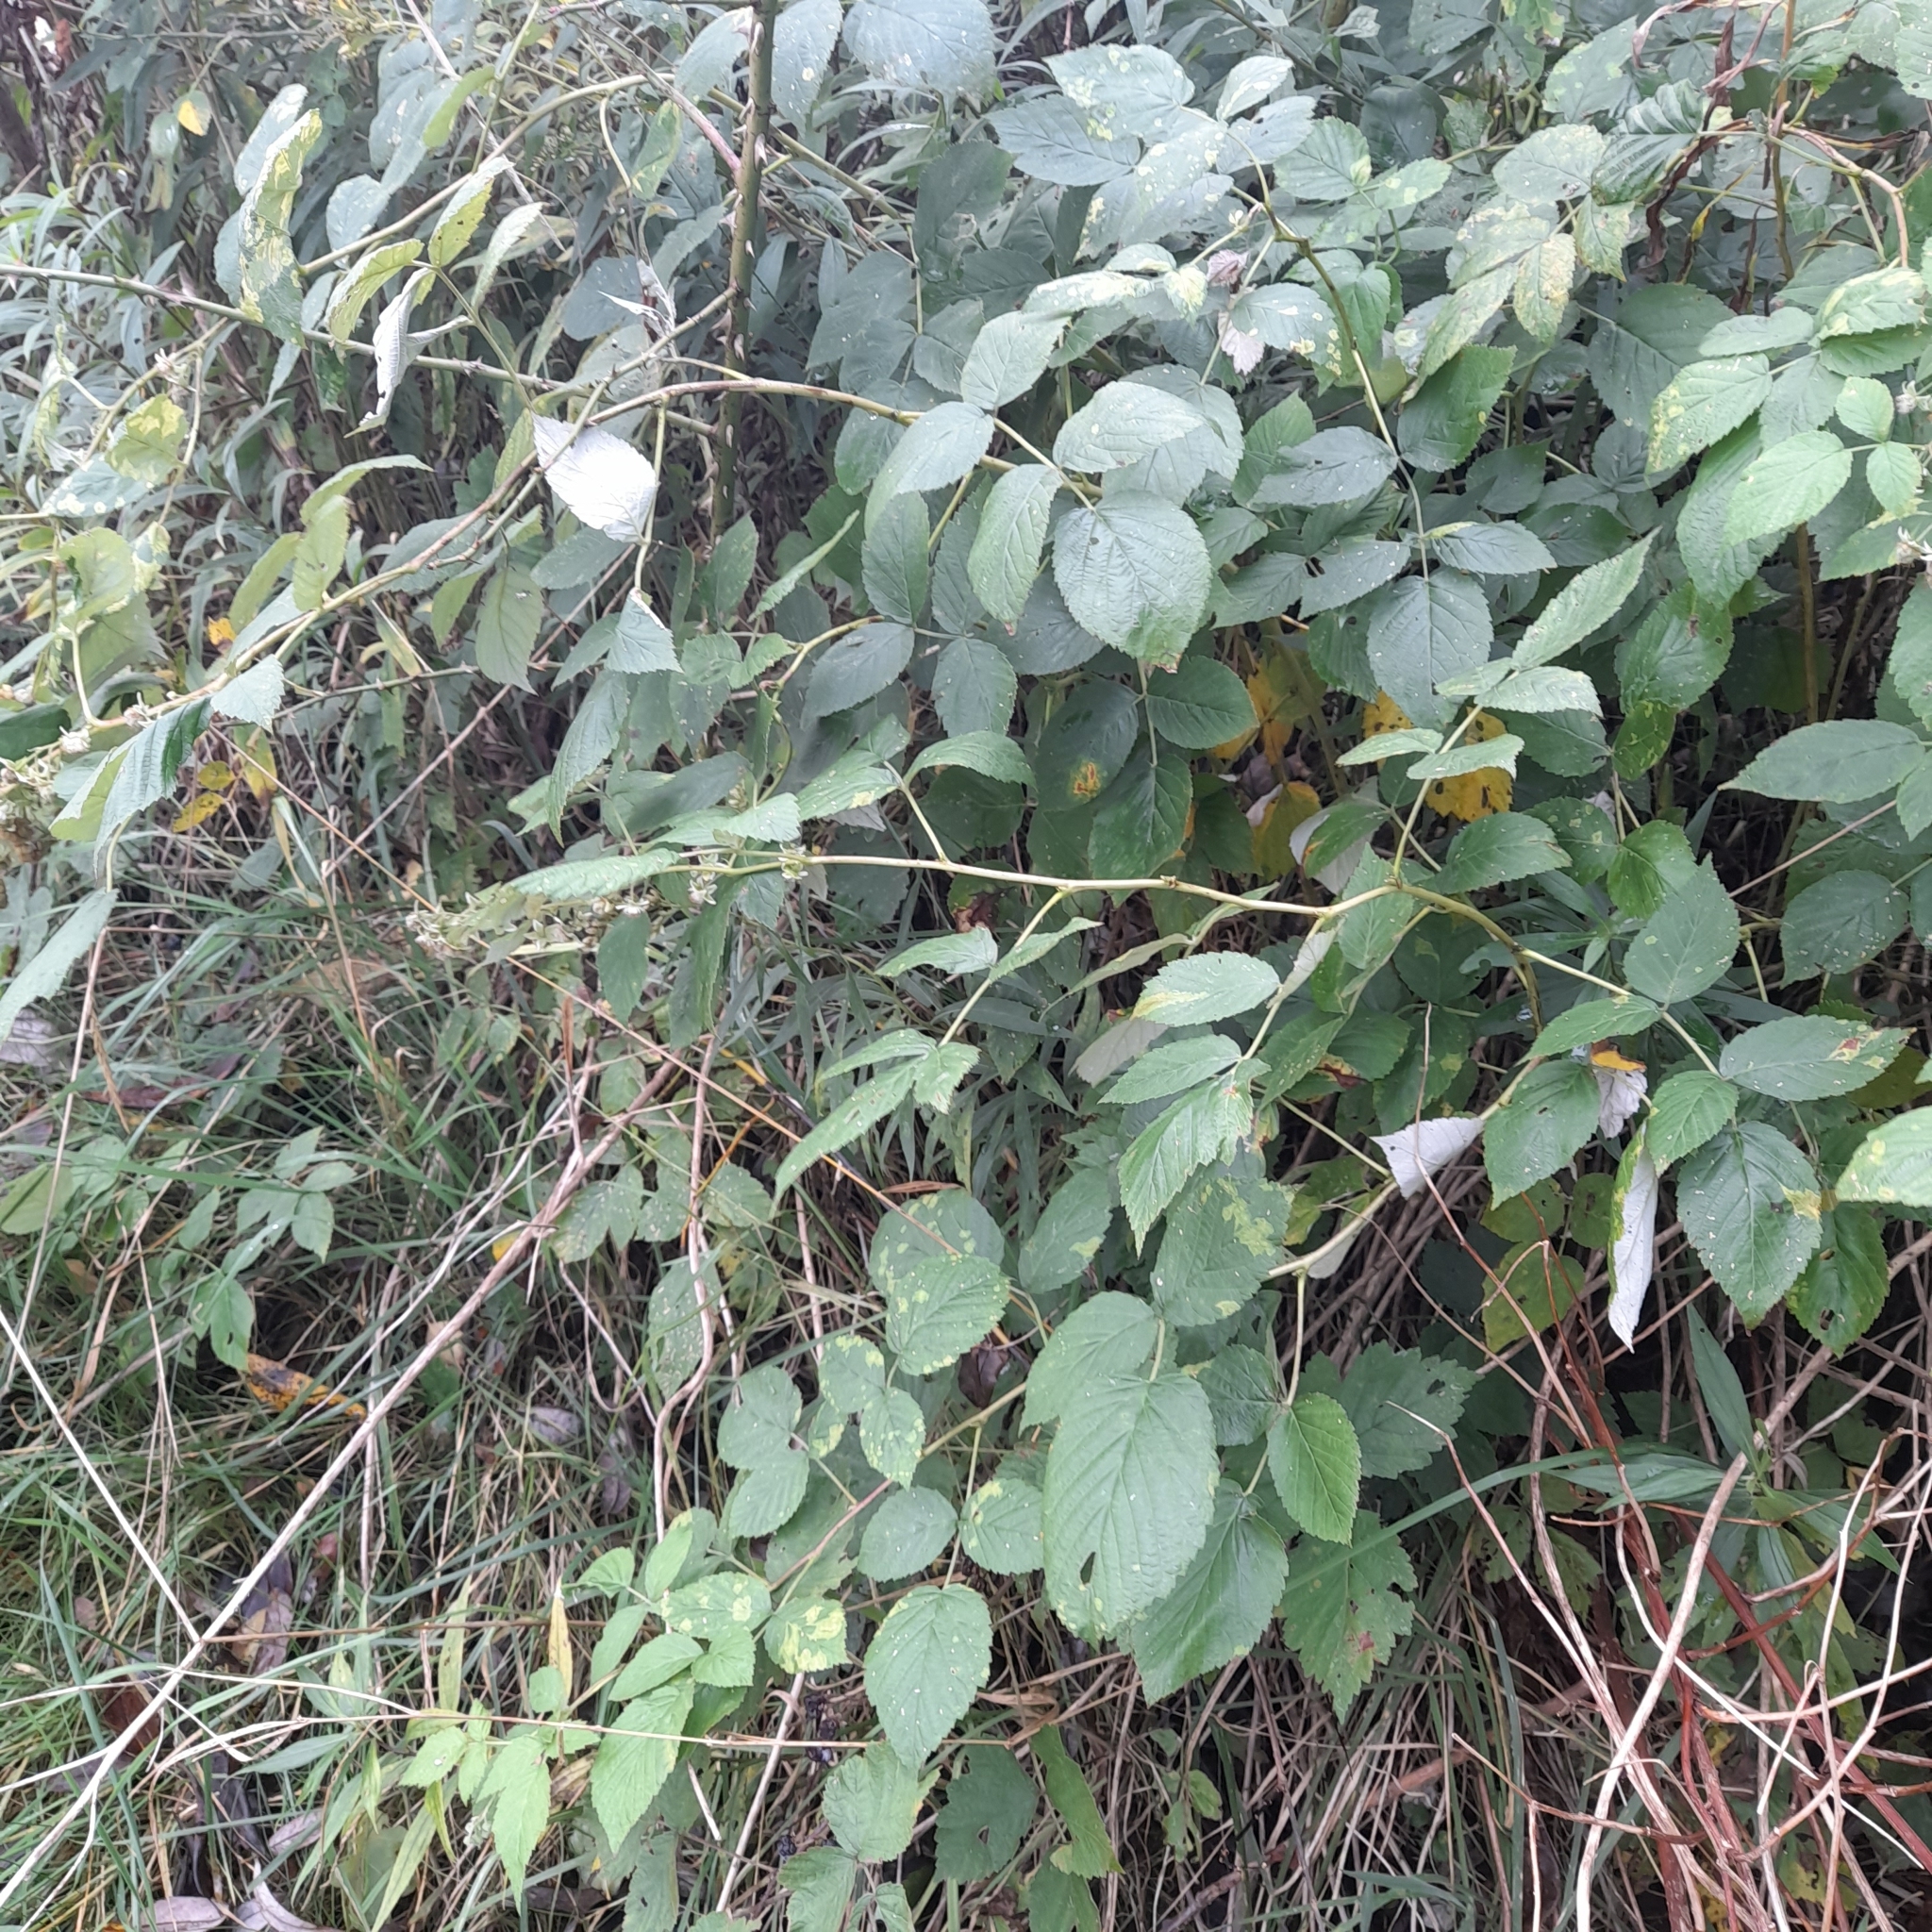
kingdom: Plantae
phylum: Tracheophyta
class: Magnoliopsida
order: Rosales
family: Rosaceae
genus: Rubus
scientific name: Rubus idaeus
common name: Raspberry
